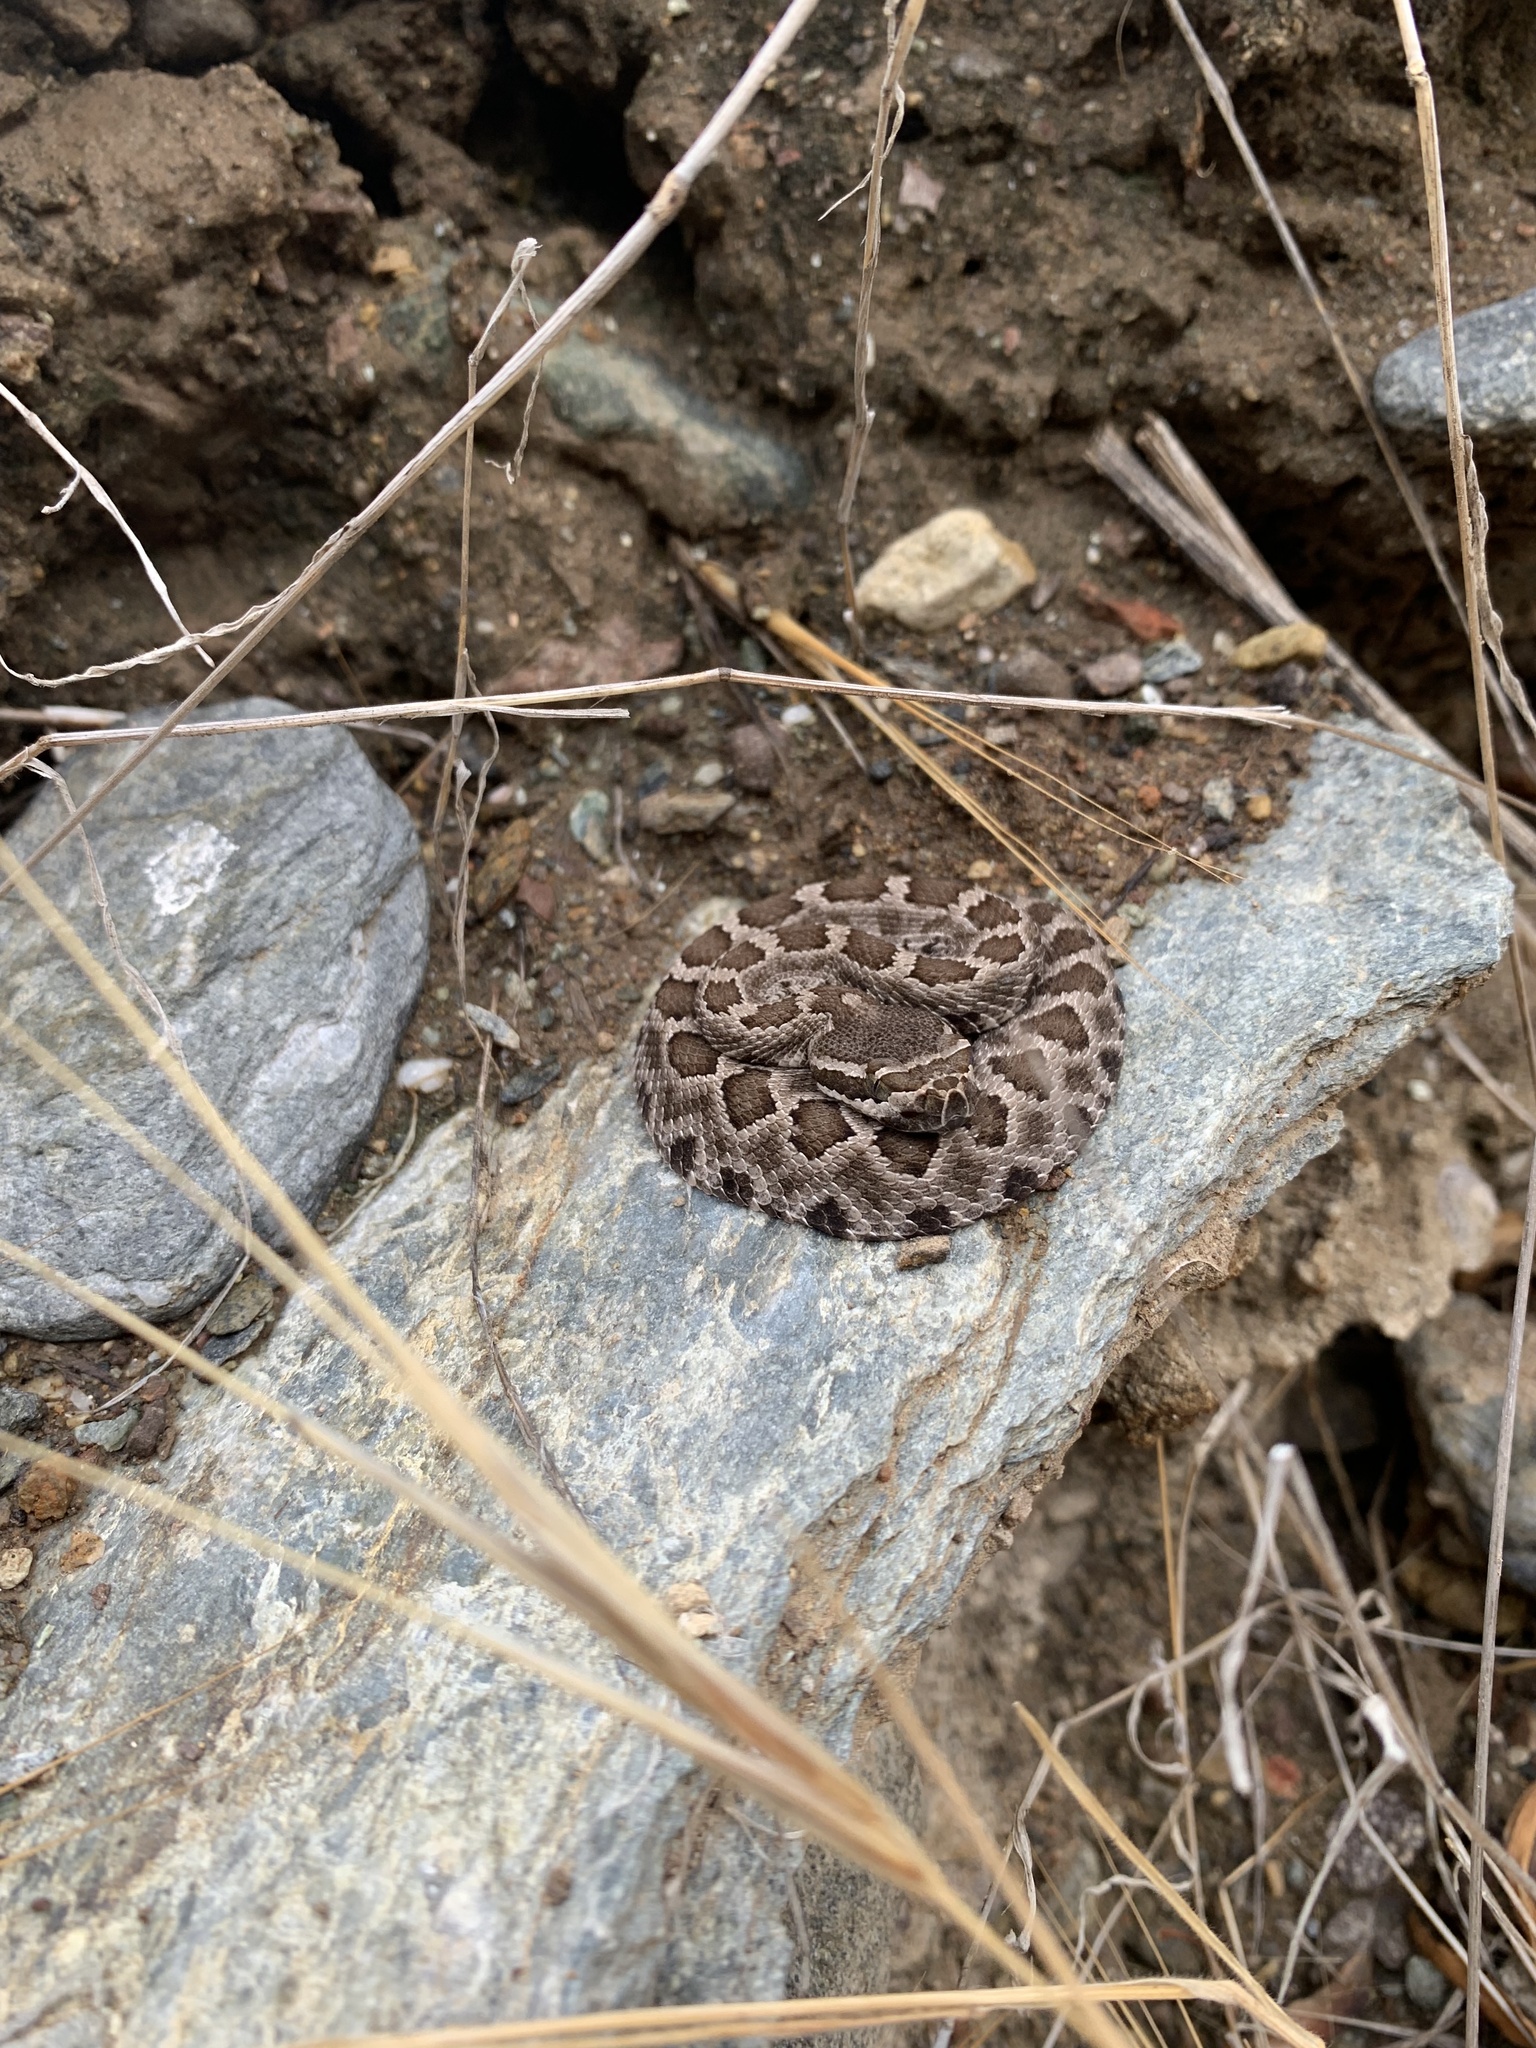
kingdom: Animalia
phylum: Chordata
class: Squamata
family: Viperidae
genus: Crotalus
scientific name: Crotalus oreganus
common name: Abyssus
